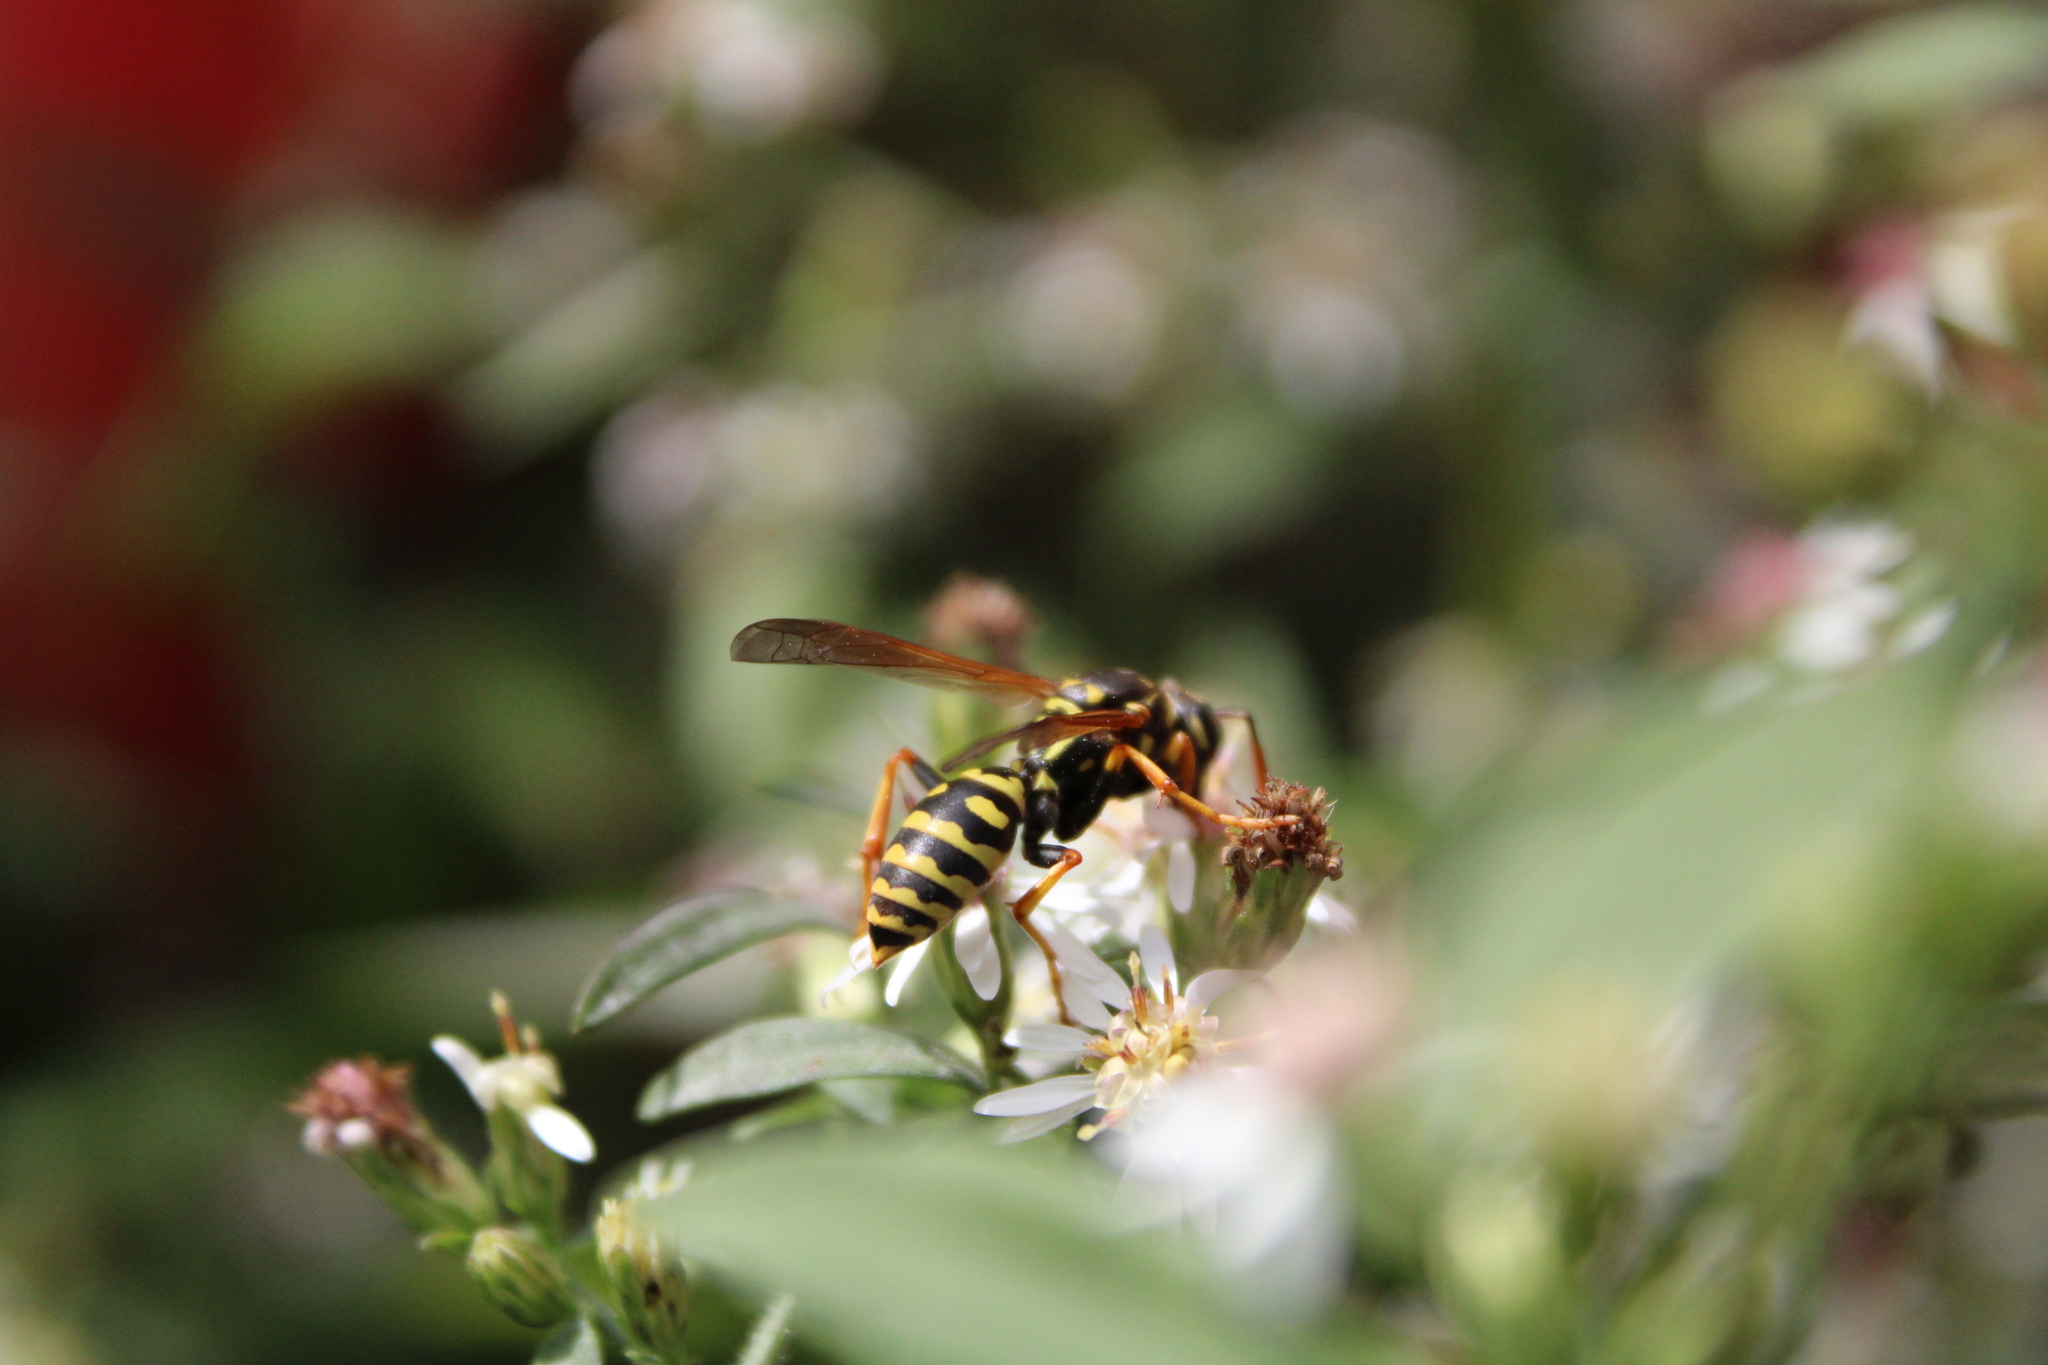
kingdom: Animalia
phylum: Arthropoda
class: Insecta
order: Hymenoptera
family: Eumenidae
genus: Polistes
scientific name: Polistes dominula
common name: Paper wasp
